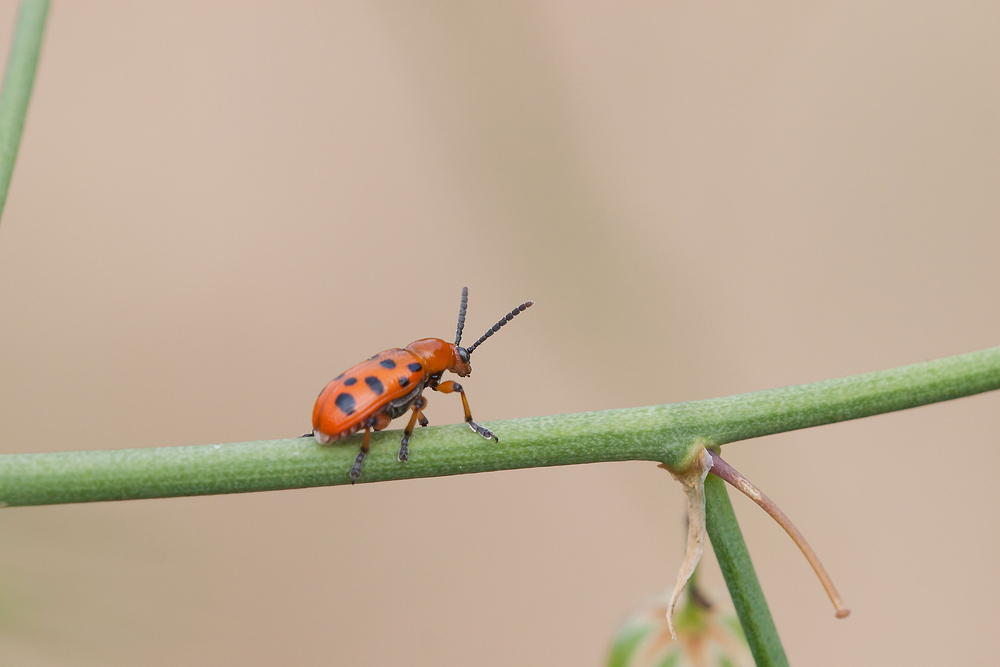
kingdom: Animalia
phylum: Arthropoda
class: Insecta
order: Coleoptera
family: Chrysomelidae
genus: Crioceris
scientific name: Crioceris duodecimpunctata
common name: Twelve-spotted asparagus beetle
